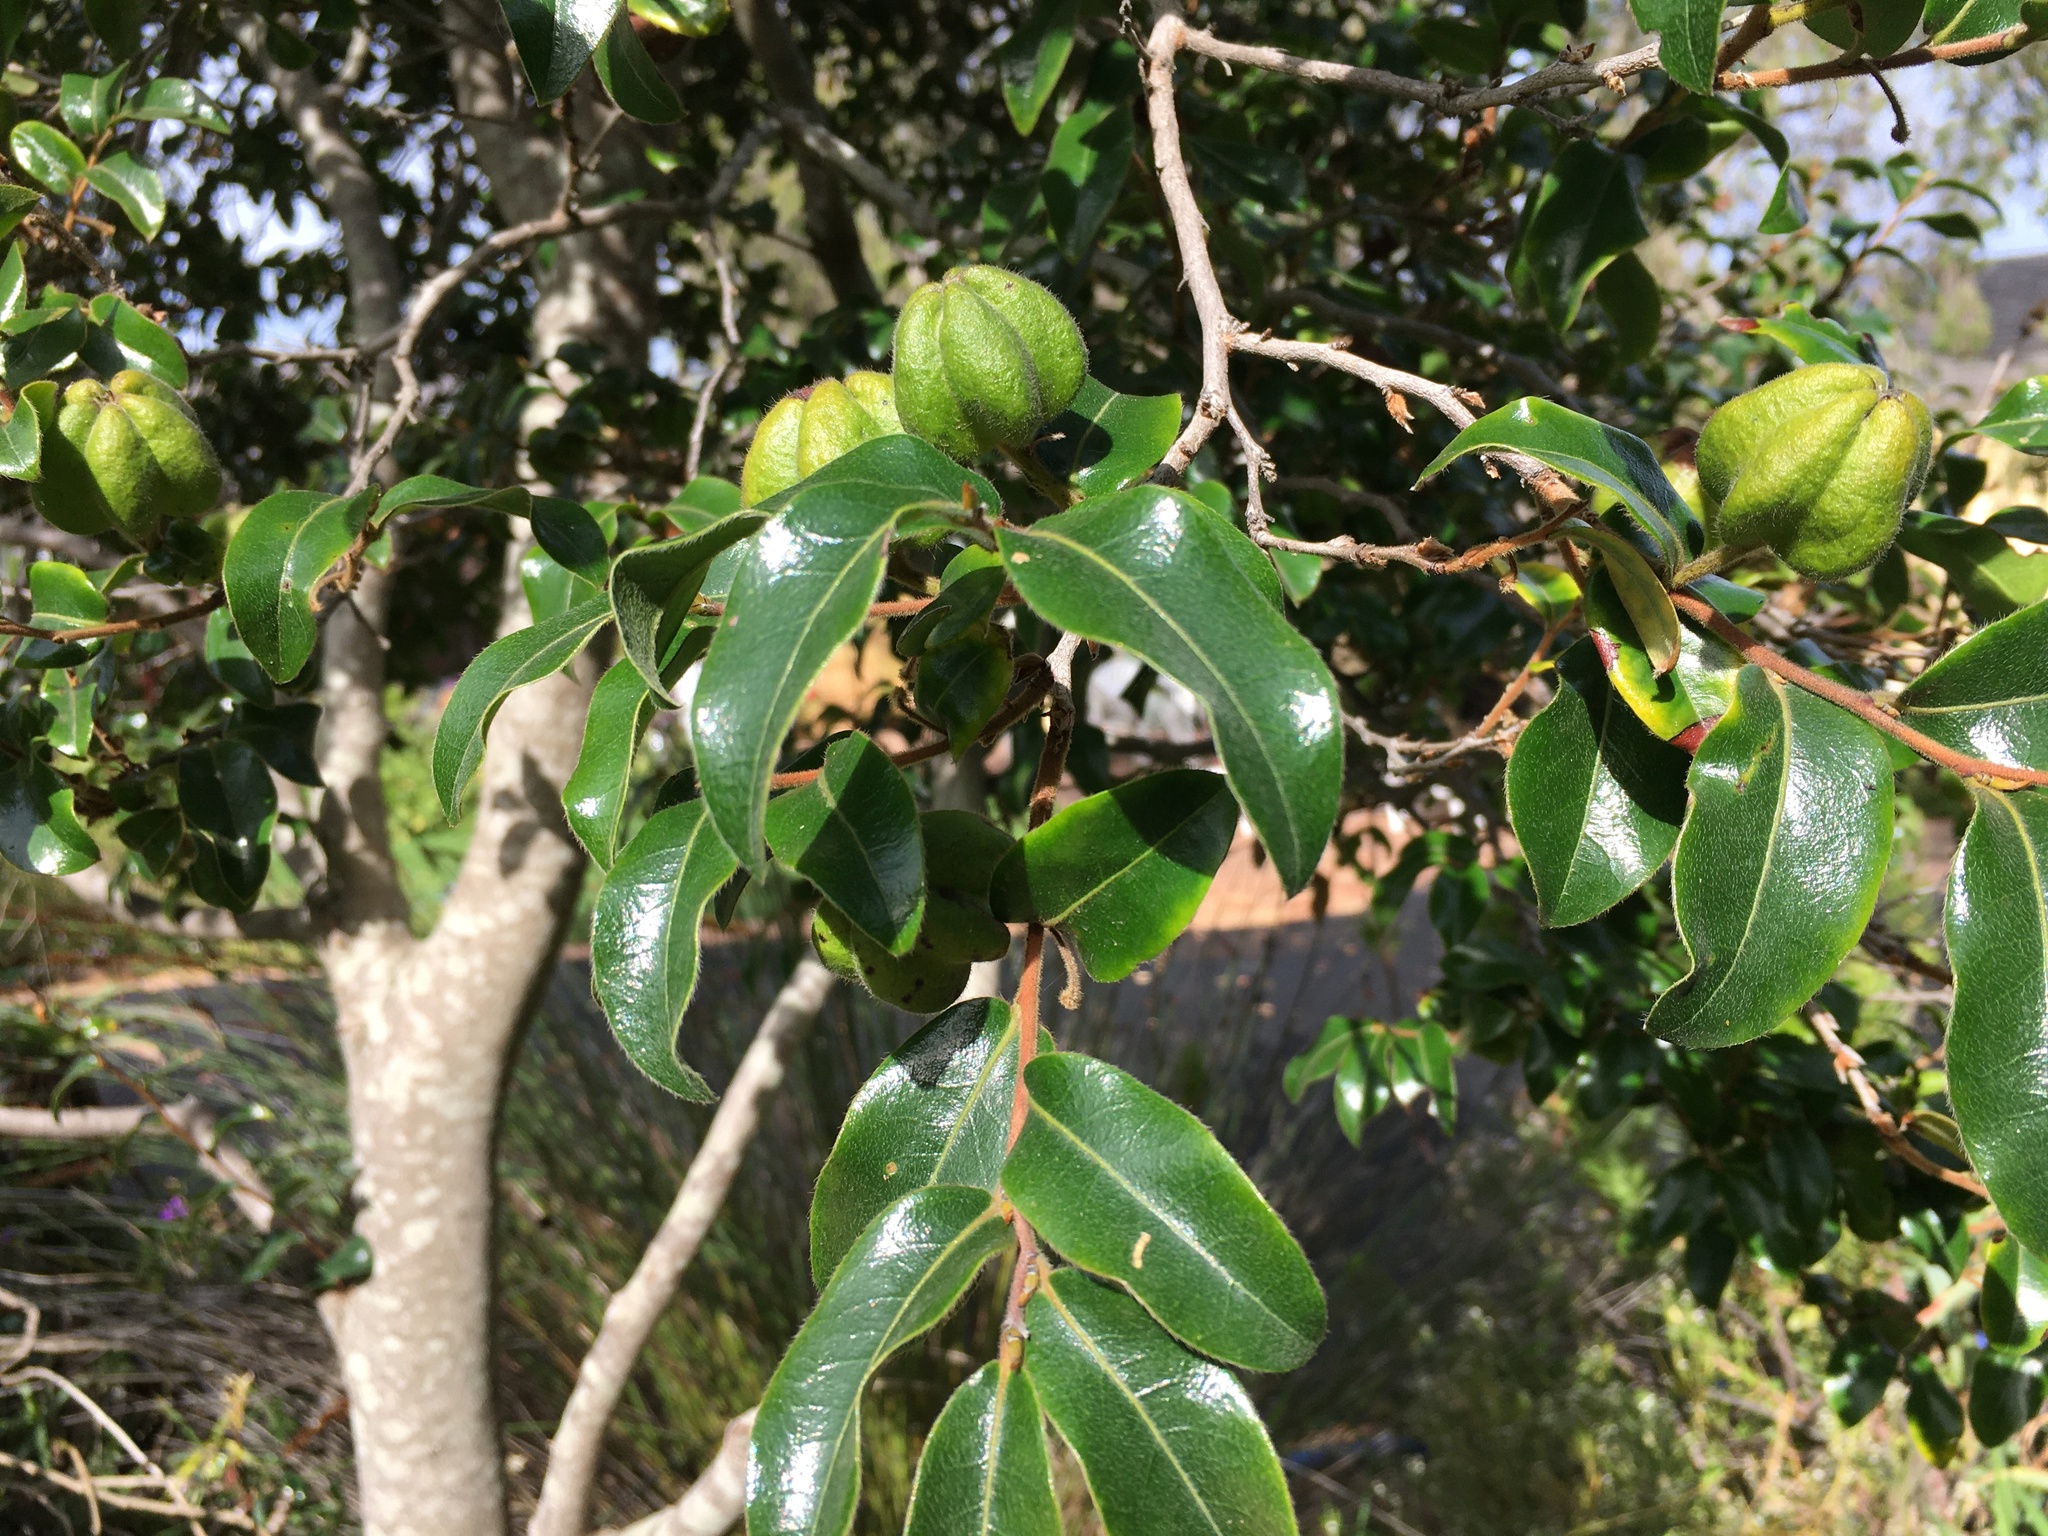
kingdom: Plantae
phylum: Tracheophyta
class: Magnoliopsida
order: Ericales
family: Ebenaceae
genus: Diospyros
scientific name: Diospyros whyteana
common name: Bladder-nut
